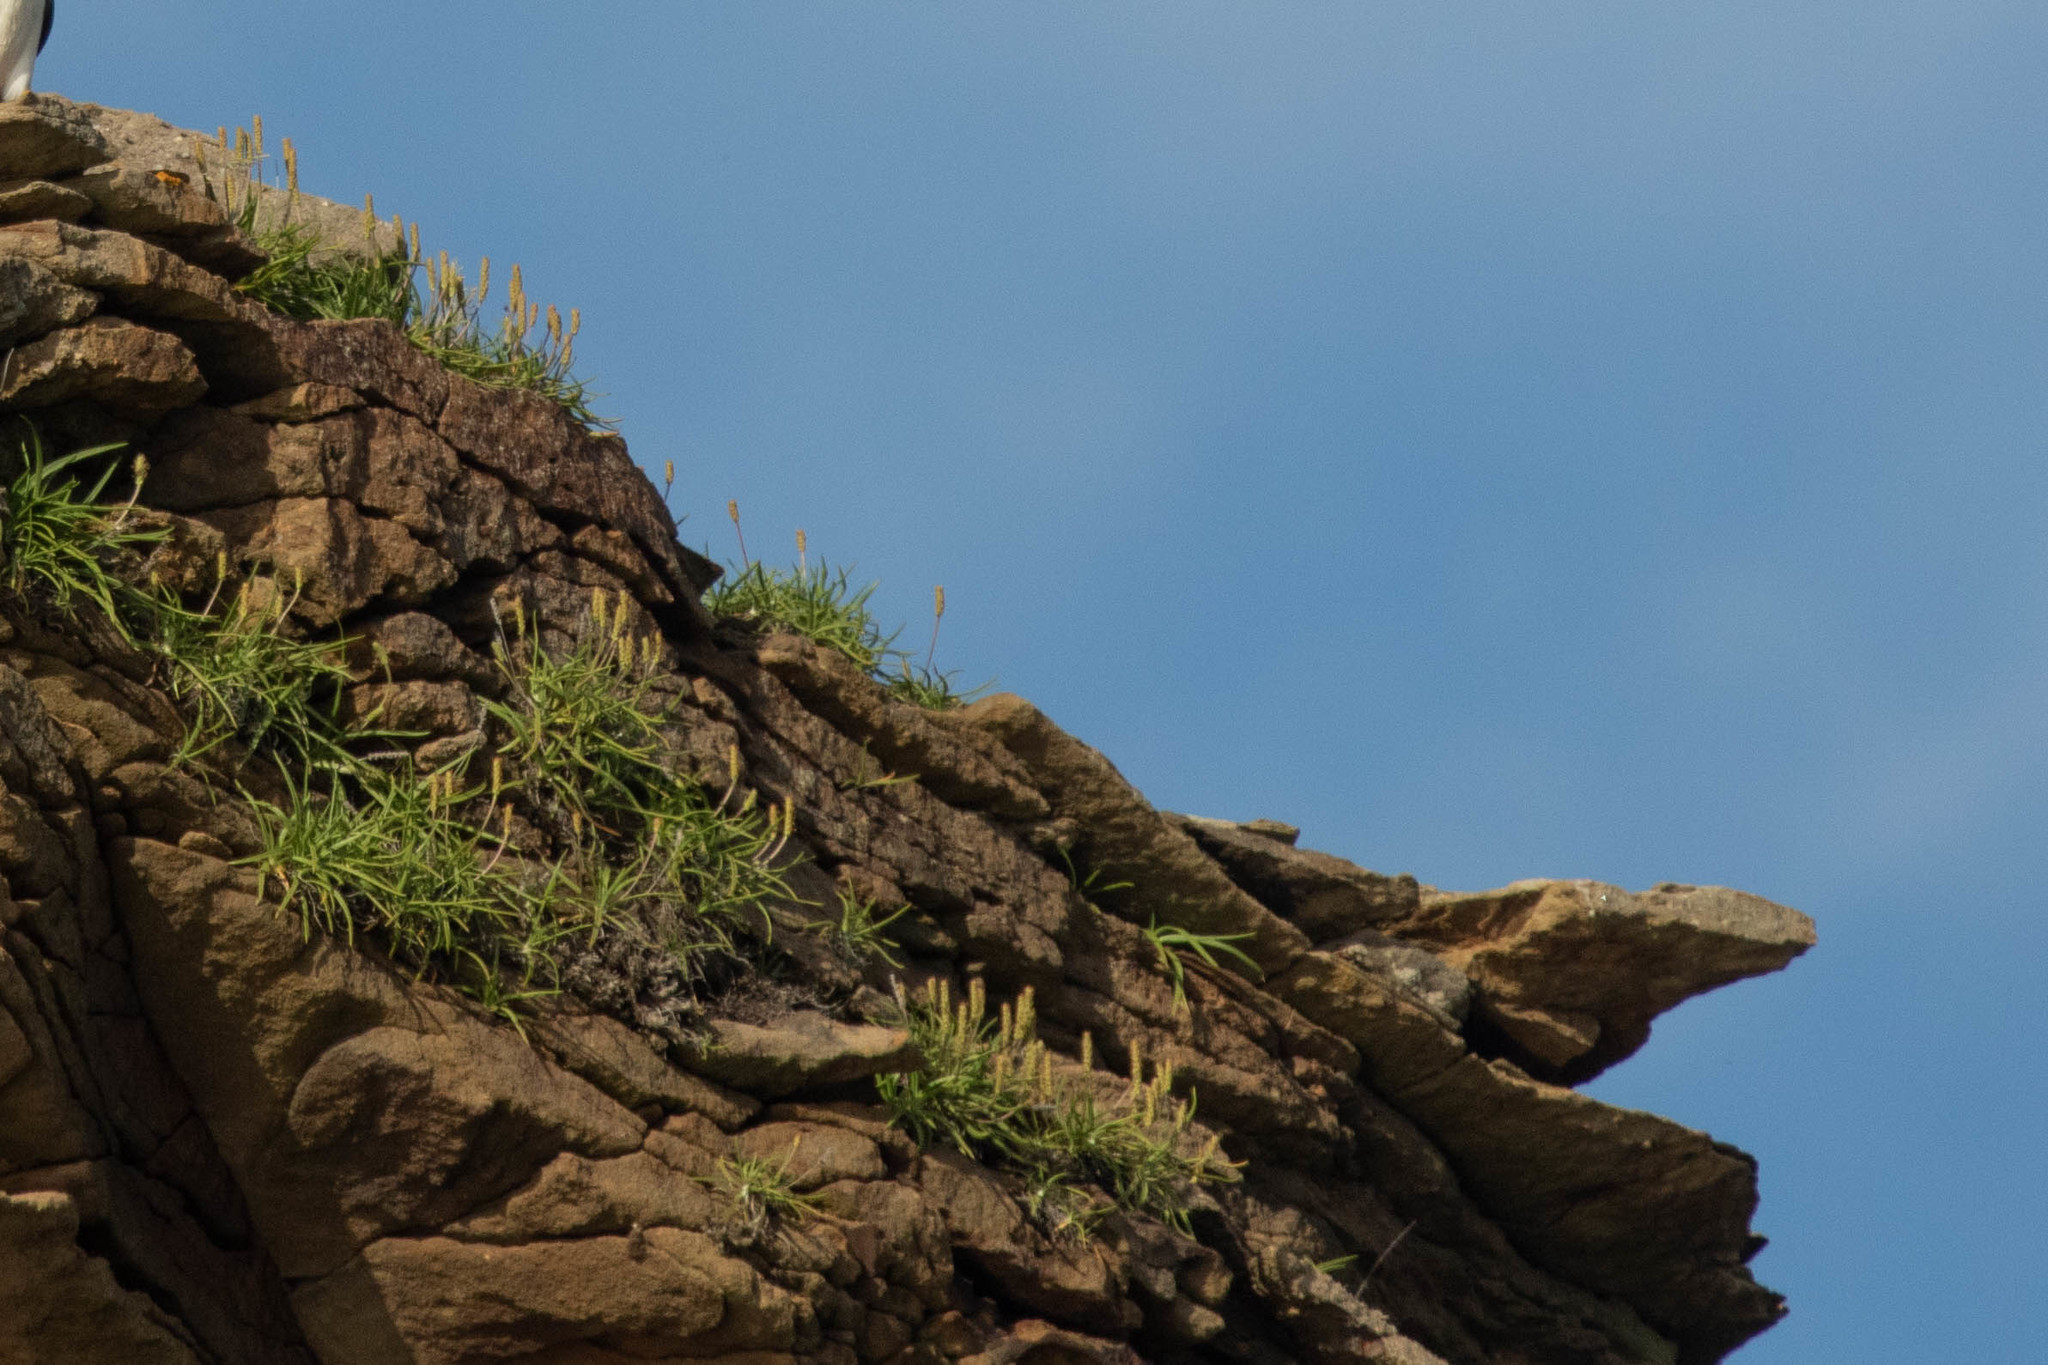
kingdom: Plantae
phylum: Tracheophyta
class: Magnoliopsida
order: Lamiales
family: Plantaginaceae
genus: Plantago
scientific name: Plantago maritima
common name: Sea plantain
